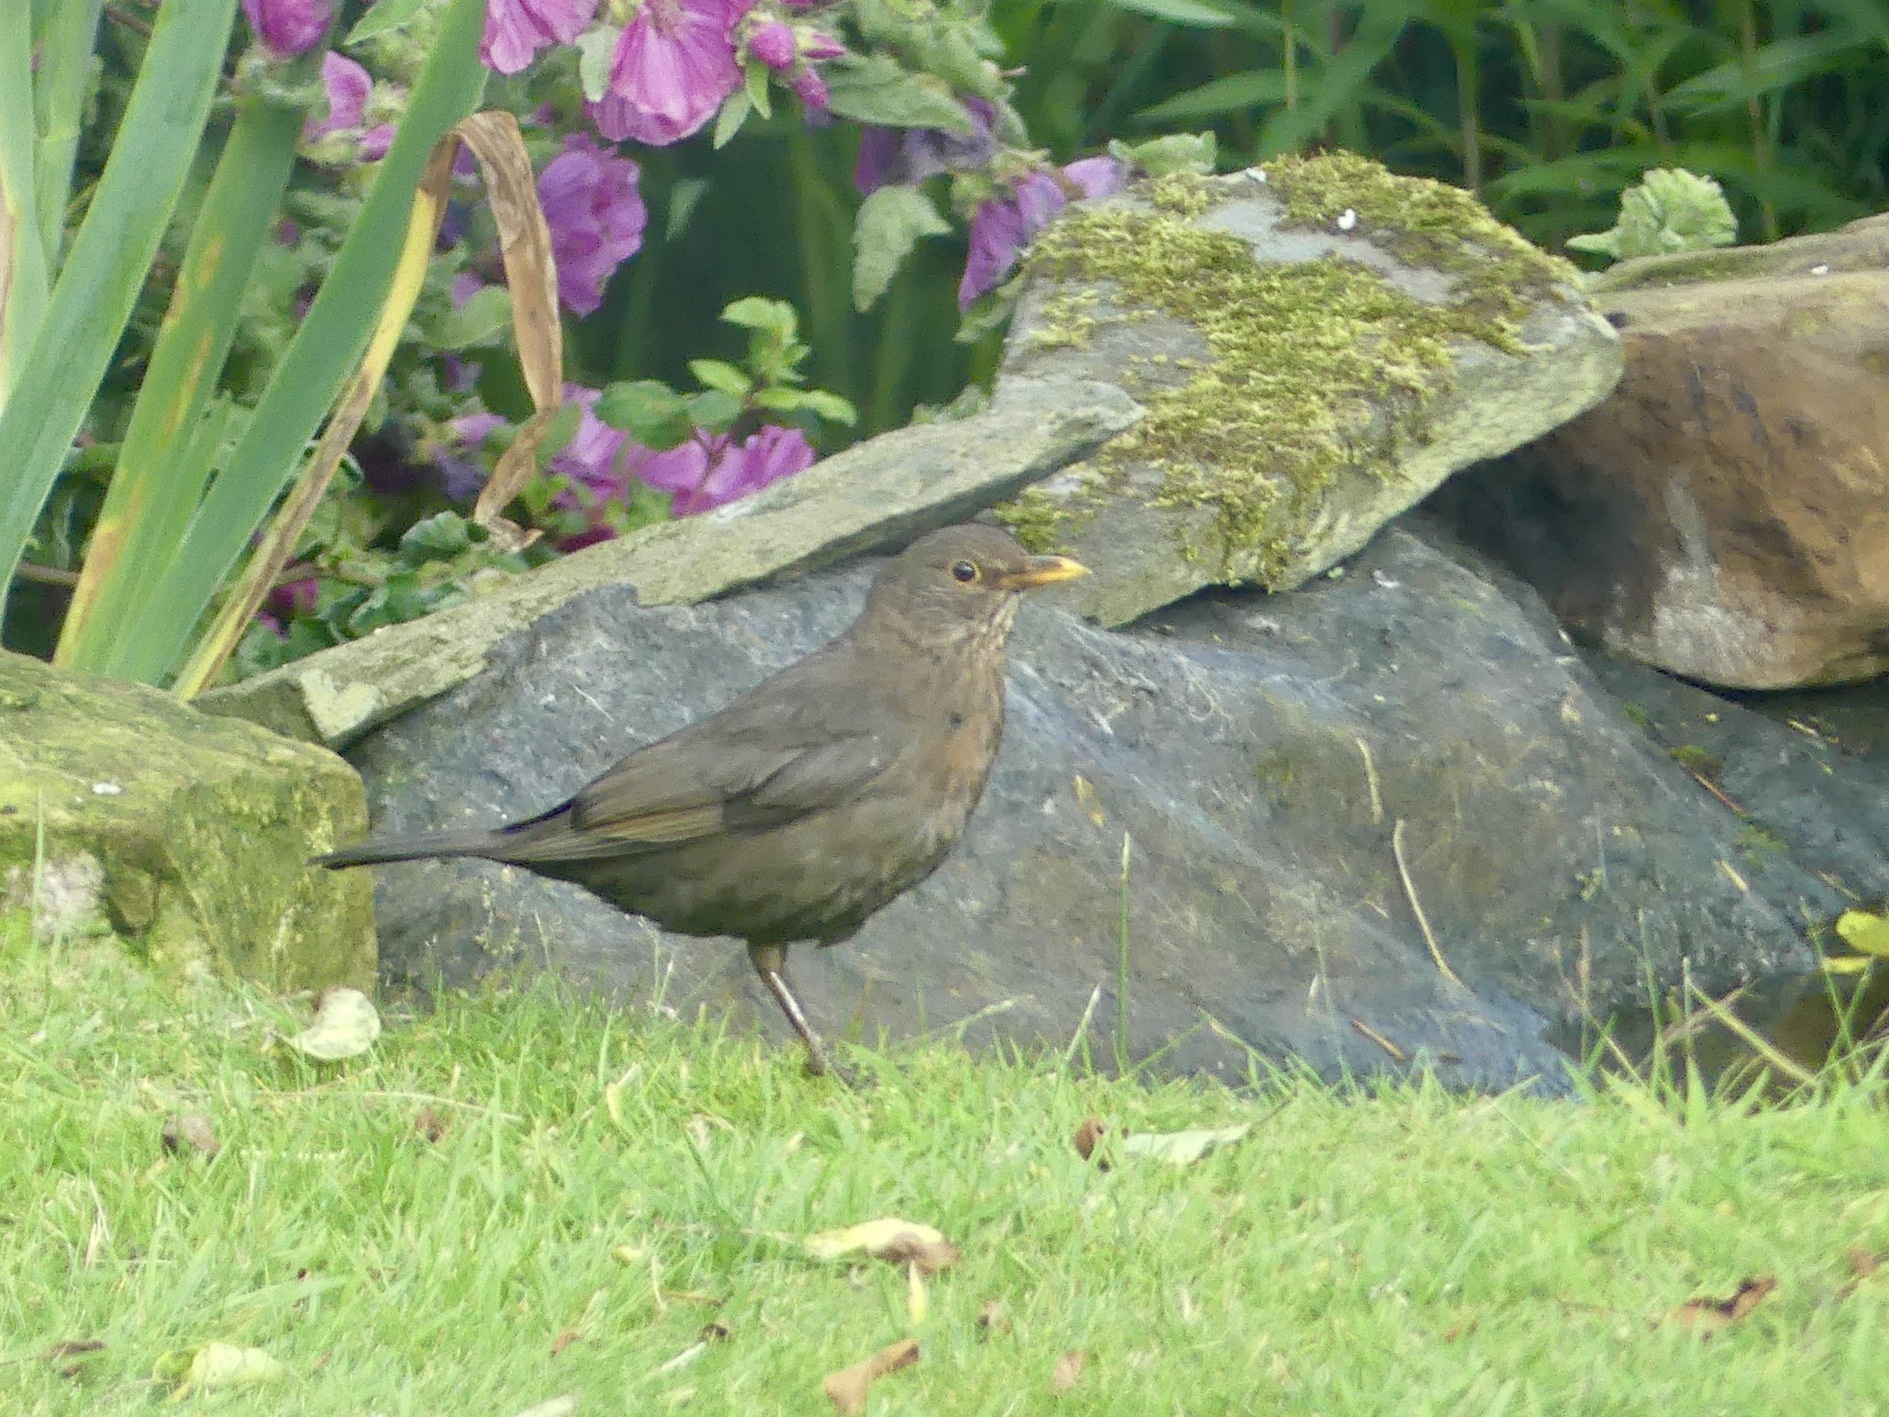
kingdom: Animalia
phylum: Chordata
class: Aves
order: Passeriformes
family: Turdidae
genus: Turdus
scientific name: Turdus merula
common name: Common blackbird
